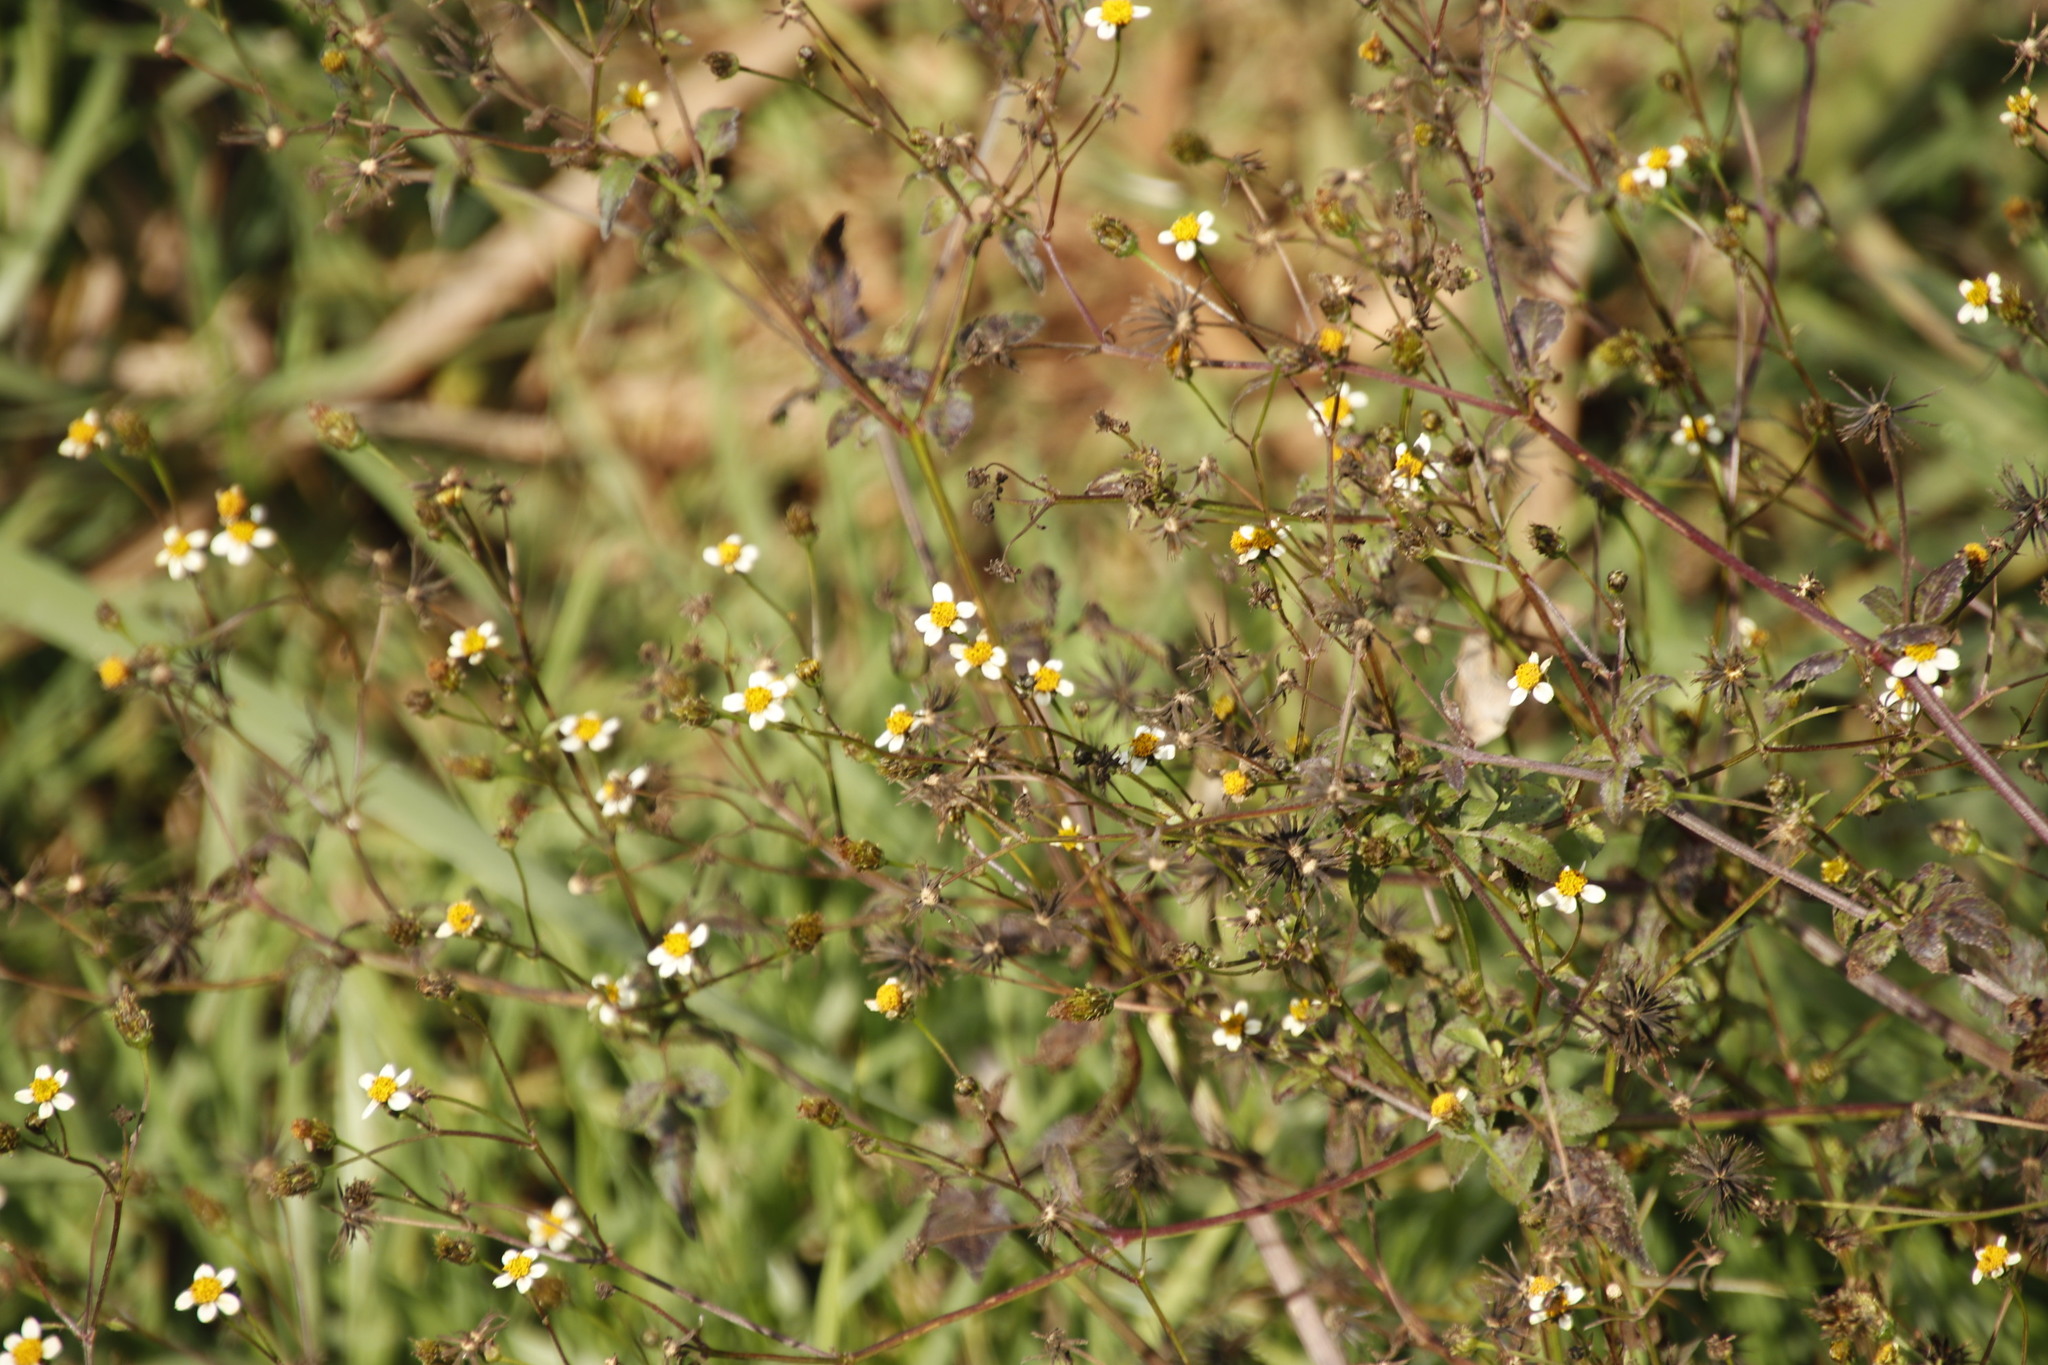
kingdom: Plantae
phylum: Tracheophyta
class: Magnoliopsida
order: Asterales
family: Asteraceae
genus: Bidens
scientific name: Bidens pilosa
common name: Black-jack
